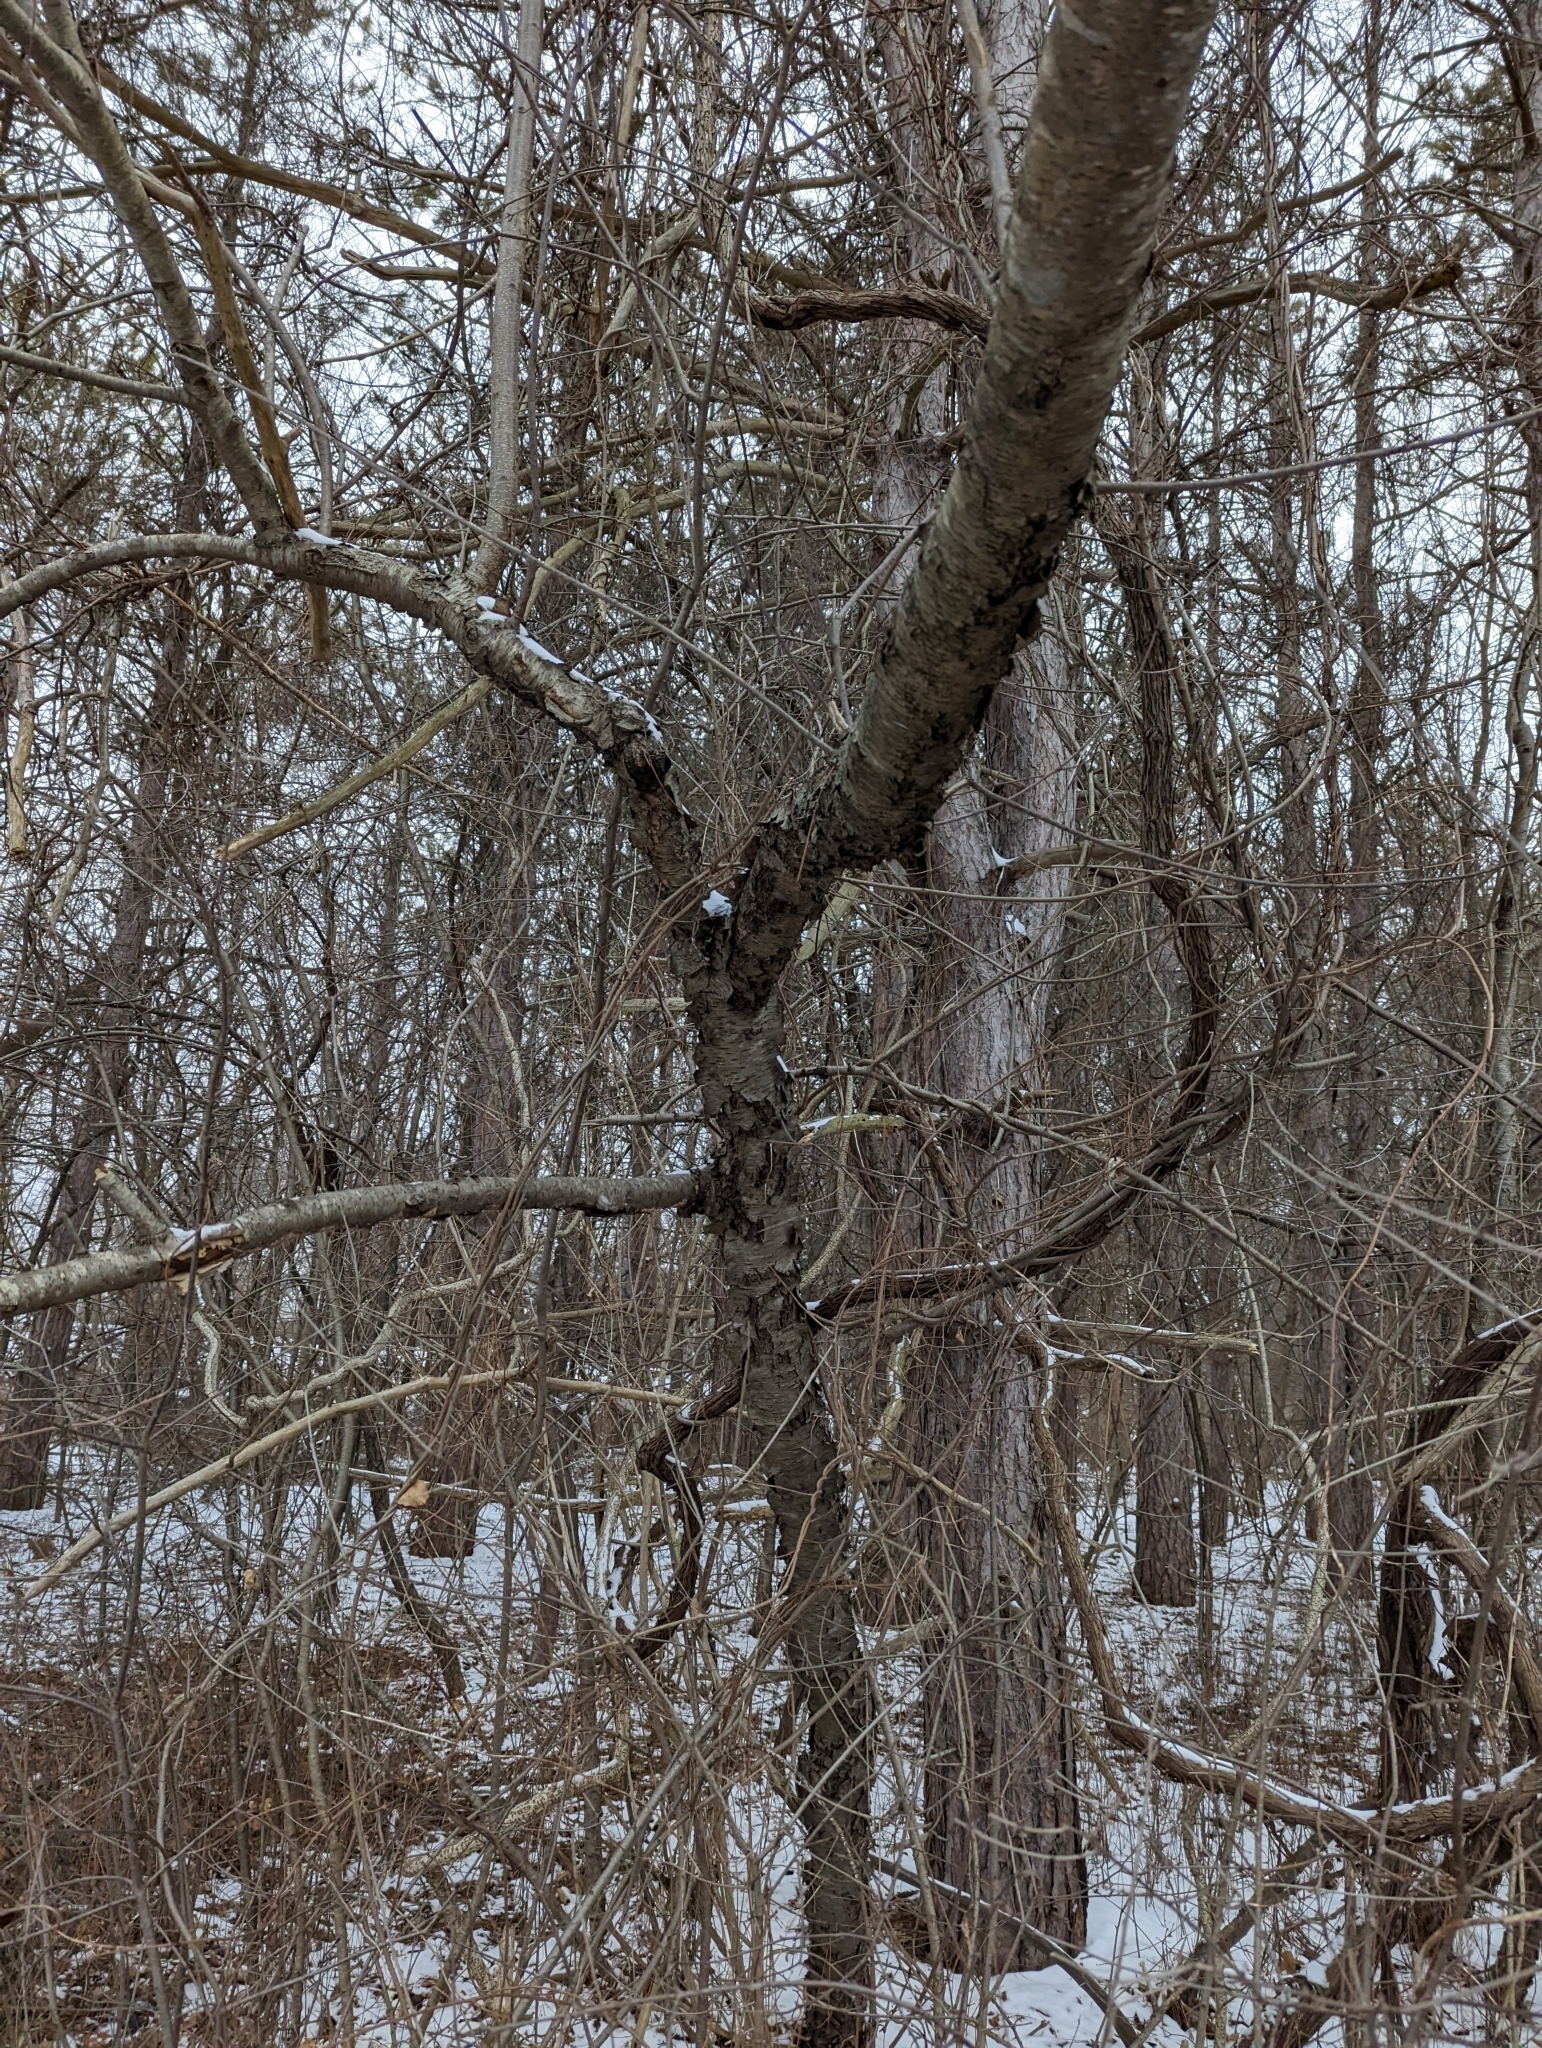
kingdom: Plantae
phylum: Tracheophyta
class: Magnoliopsida
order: Rosales
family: Rosaceae
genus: Prunus
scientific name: Prunus serotina
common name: Black cherry
